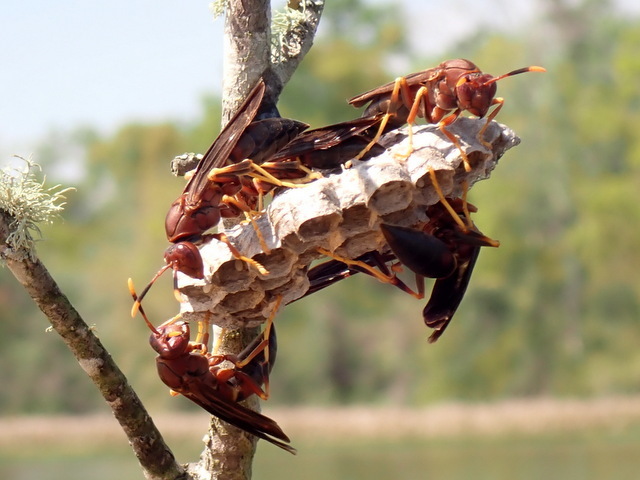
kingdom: Animalia
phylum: Arthropoda
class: Insecta
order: Hymenoptera
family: Eumenidae
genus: Polistes
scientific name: Polistes annularis
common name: Ringed paper wasp
